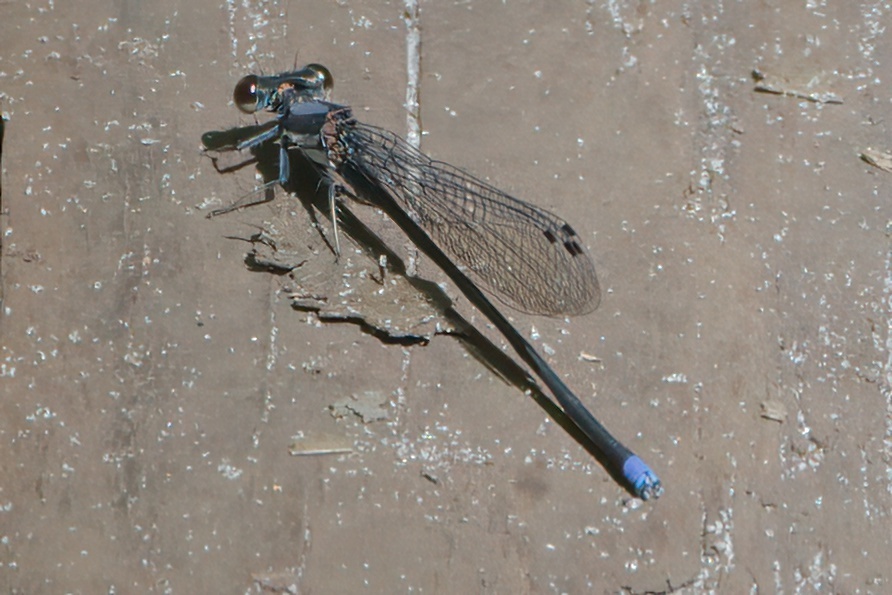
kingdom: Animalia
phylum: Arthropoda
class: Insecta
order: Odonata
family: Coenagrionidae
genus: Argia
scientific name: Argia tibialis
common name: Blue-tipped dancer
